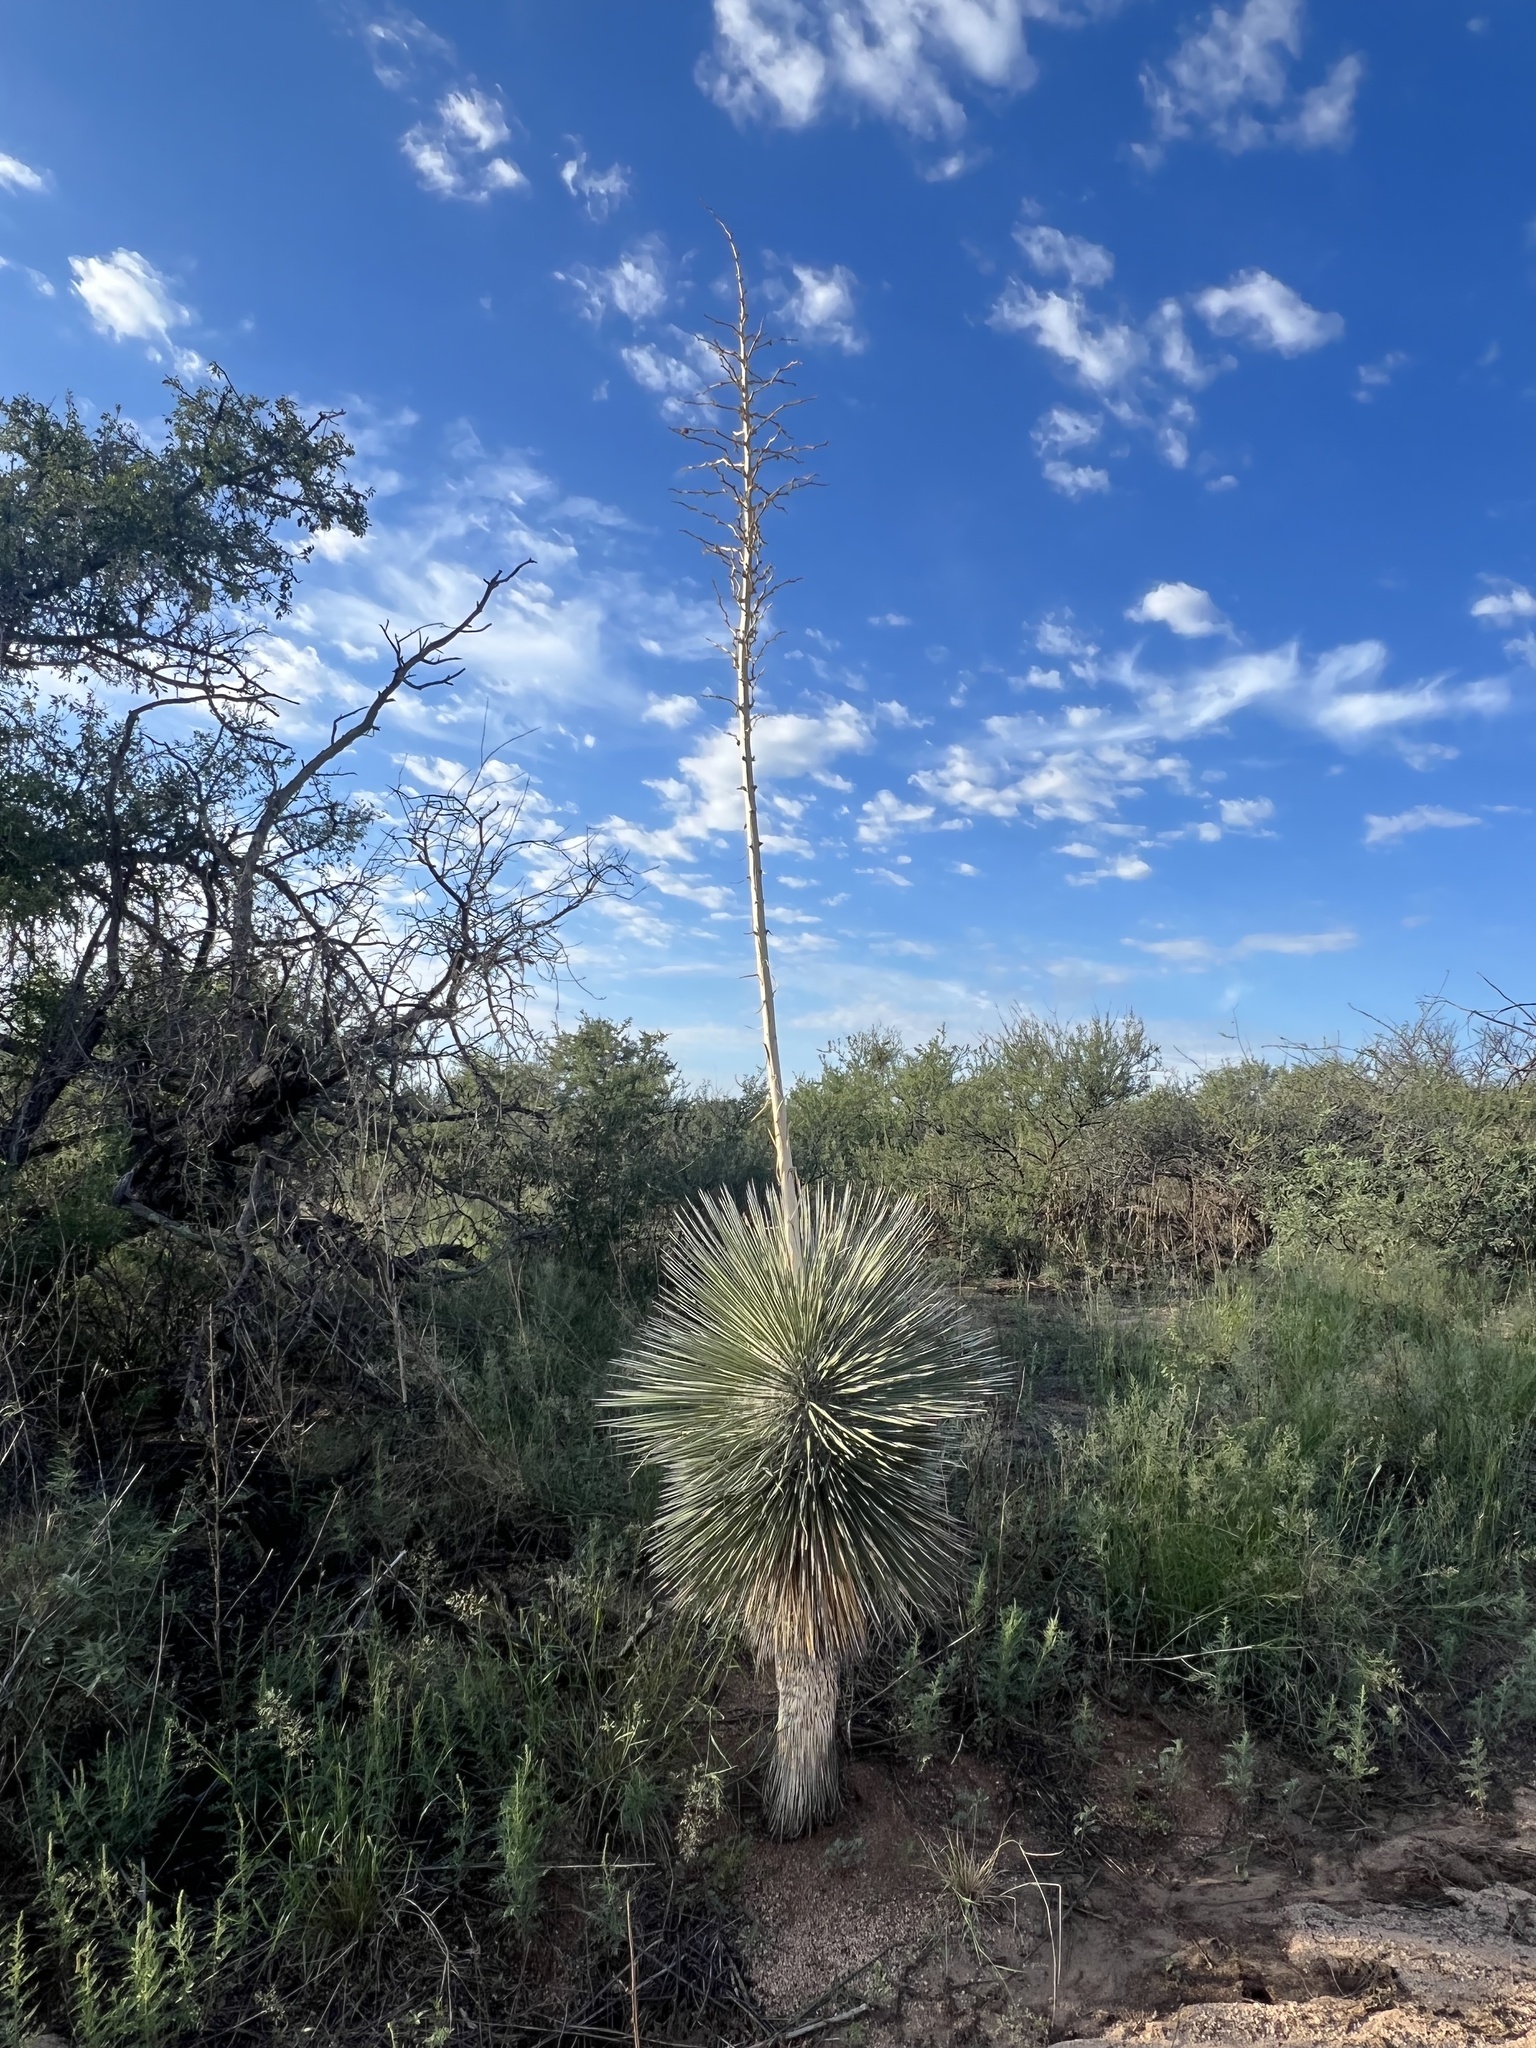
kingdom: Plantae
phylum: Tracheophyta
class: Liliopsida
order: Asparagales
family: Asparagaceae
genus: Yucca
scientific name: Yucca elata
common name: Palmella
